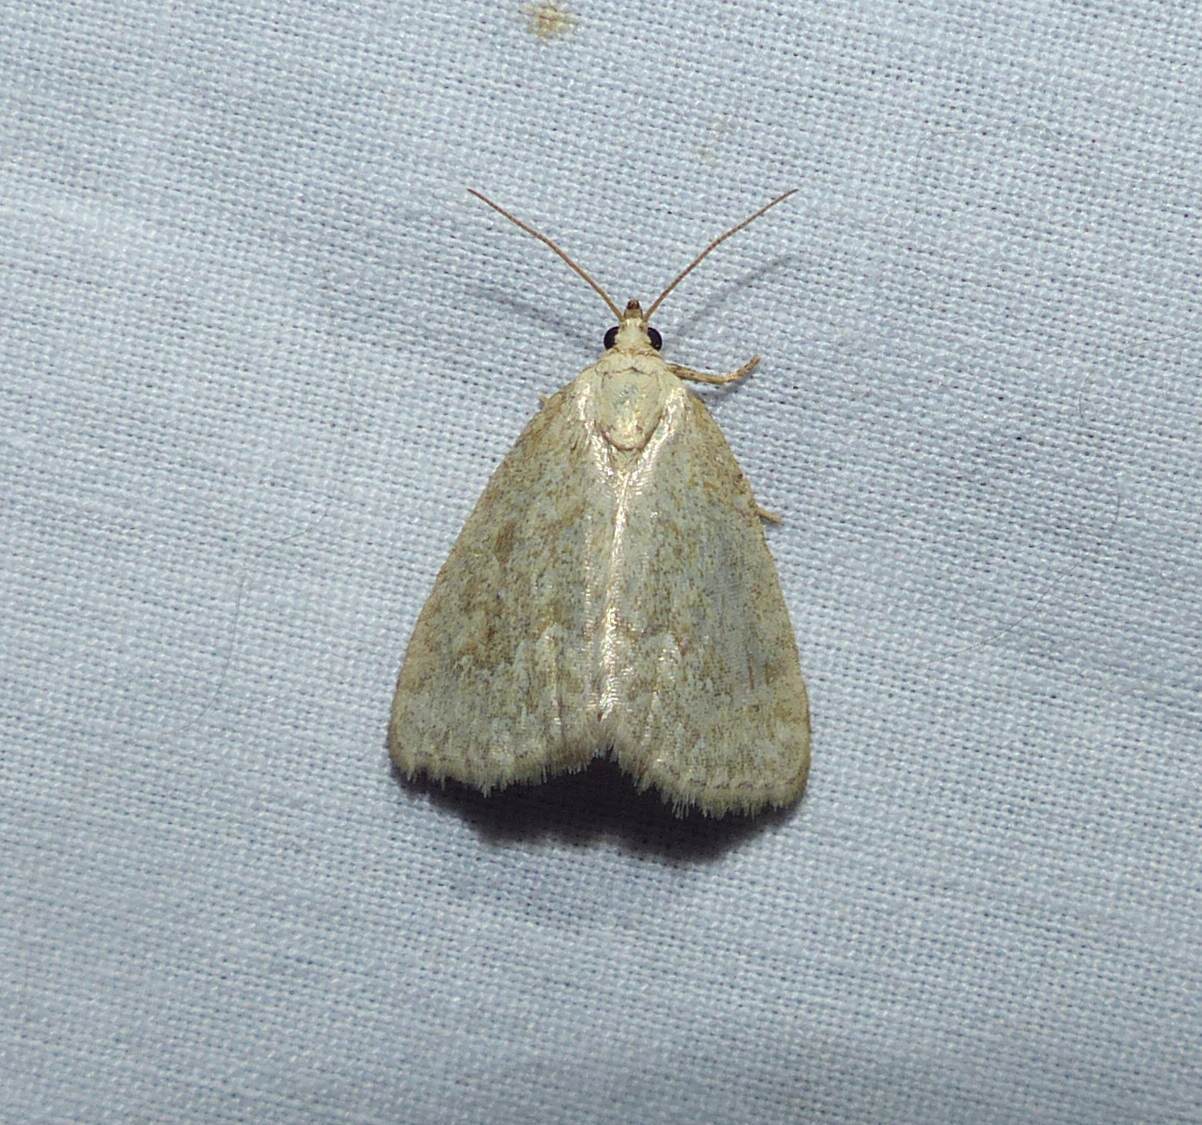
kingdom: Animalia
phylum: Arthropoda
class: Insecta
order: Lepidoptera
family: Noctuidae
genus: Protodeltote
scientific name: Protodeltote albidula
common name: Pale glyph
